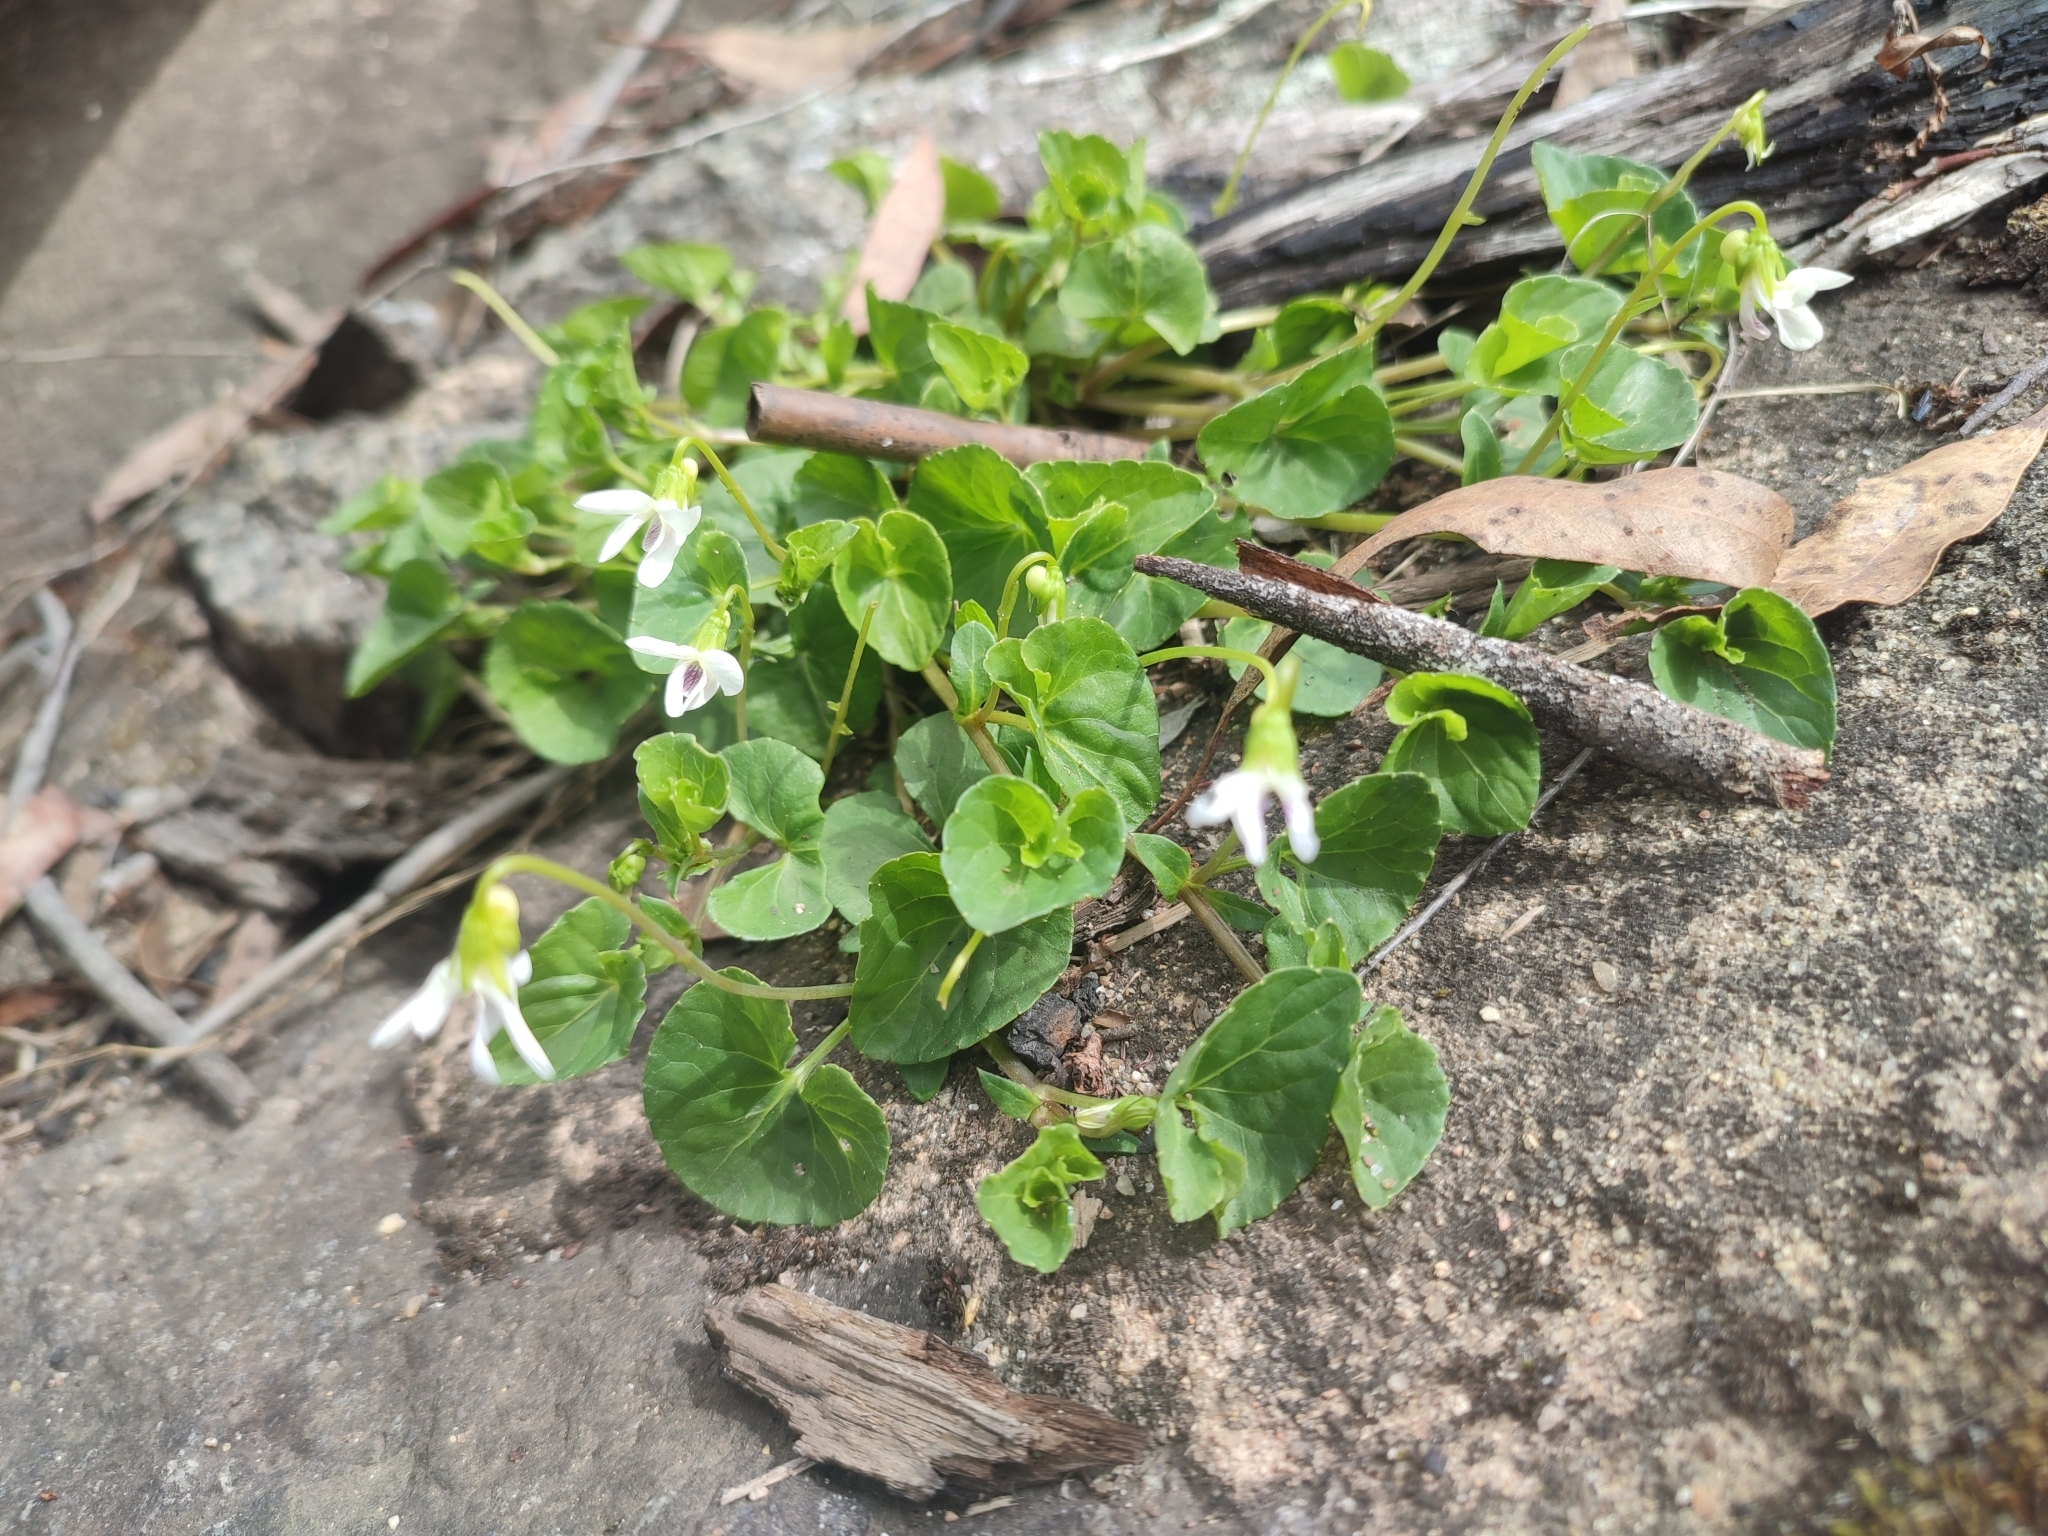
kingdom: Plantae
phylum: Tracheophyta
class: Magnoliopsida
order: Malpighiales
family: Violaceae
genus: Viola
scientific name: Viola caleyana
